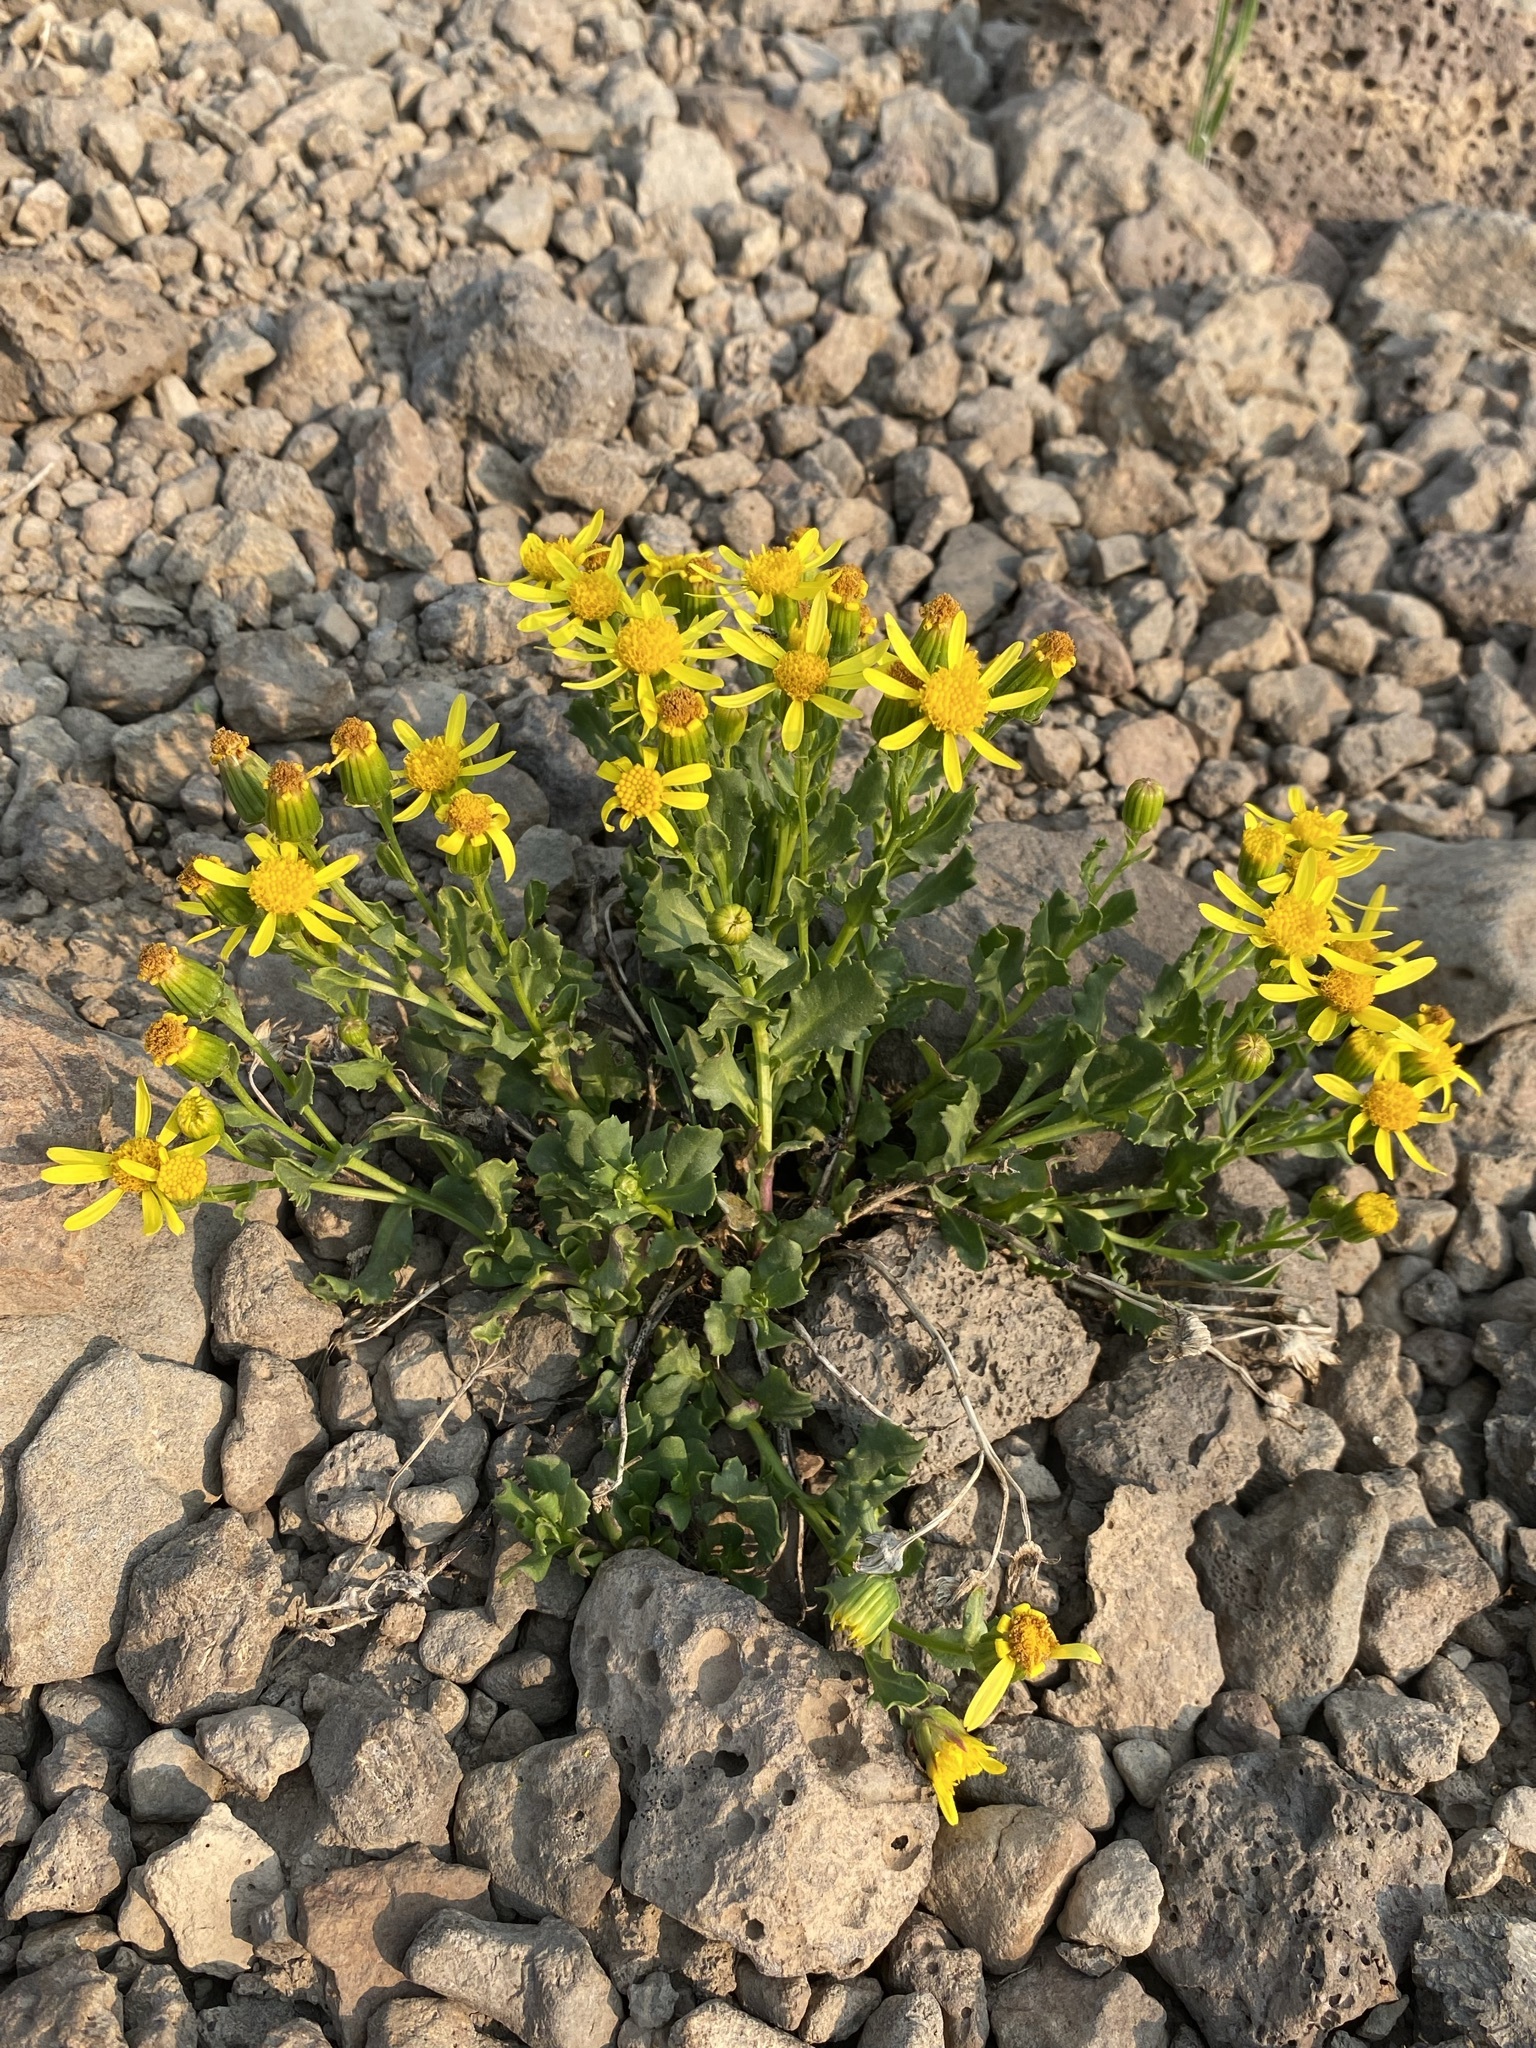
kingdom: Plantae
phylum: Tracheophyta
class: Magnoliopsida
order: Asterales
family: Asteraceae
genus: Senecio
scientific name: Senecio fremontii
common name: Fremont's groundsel
